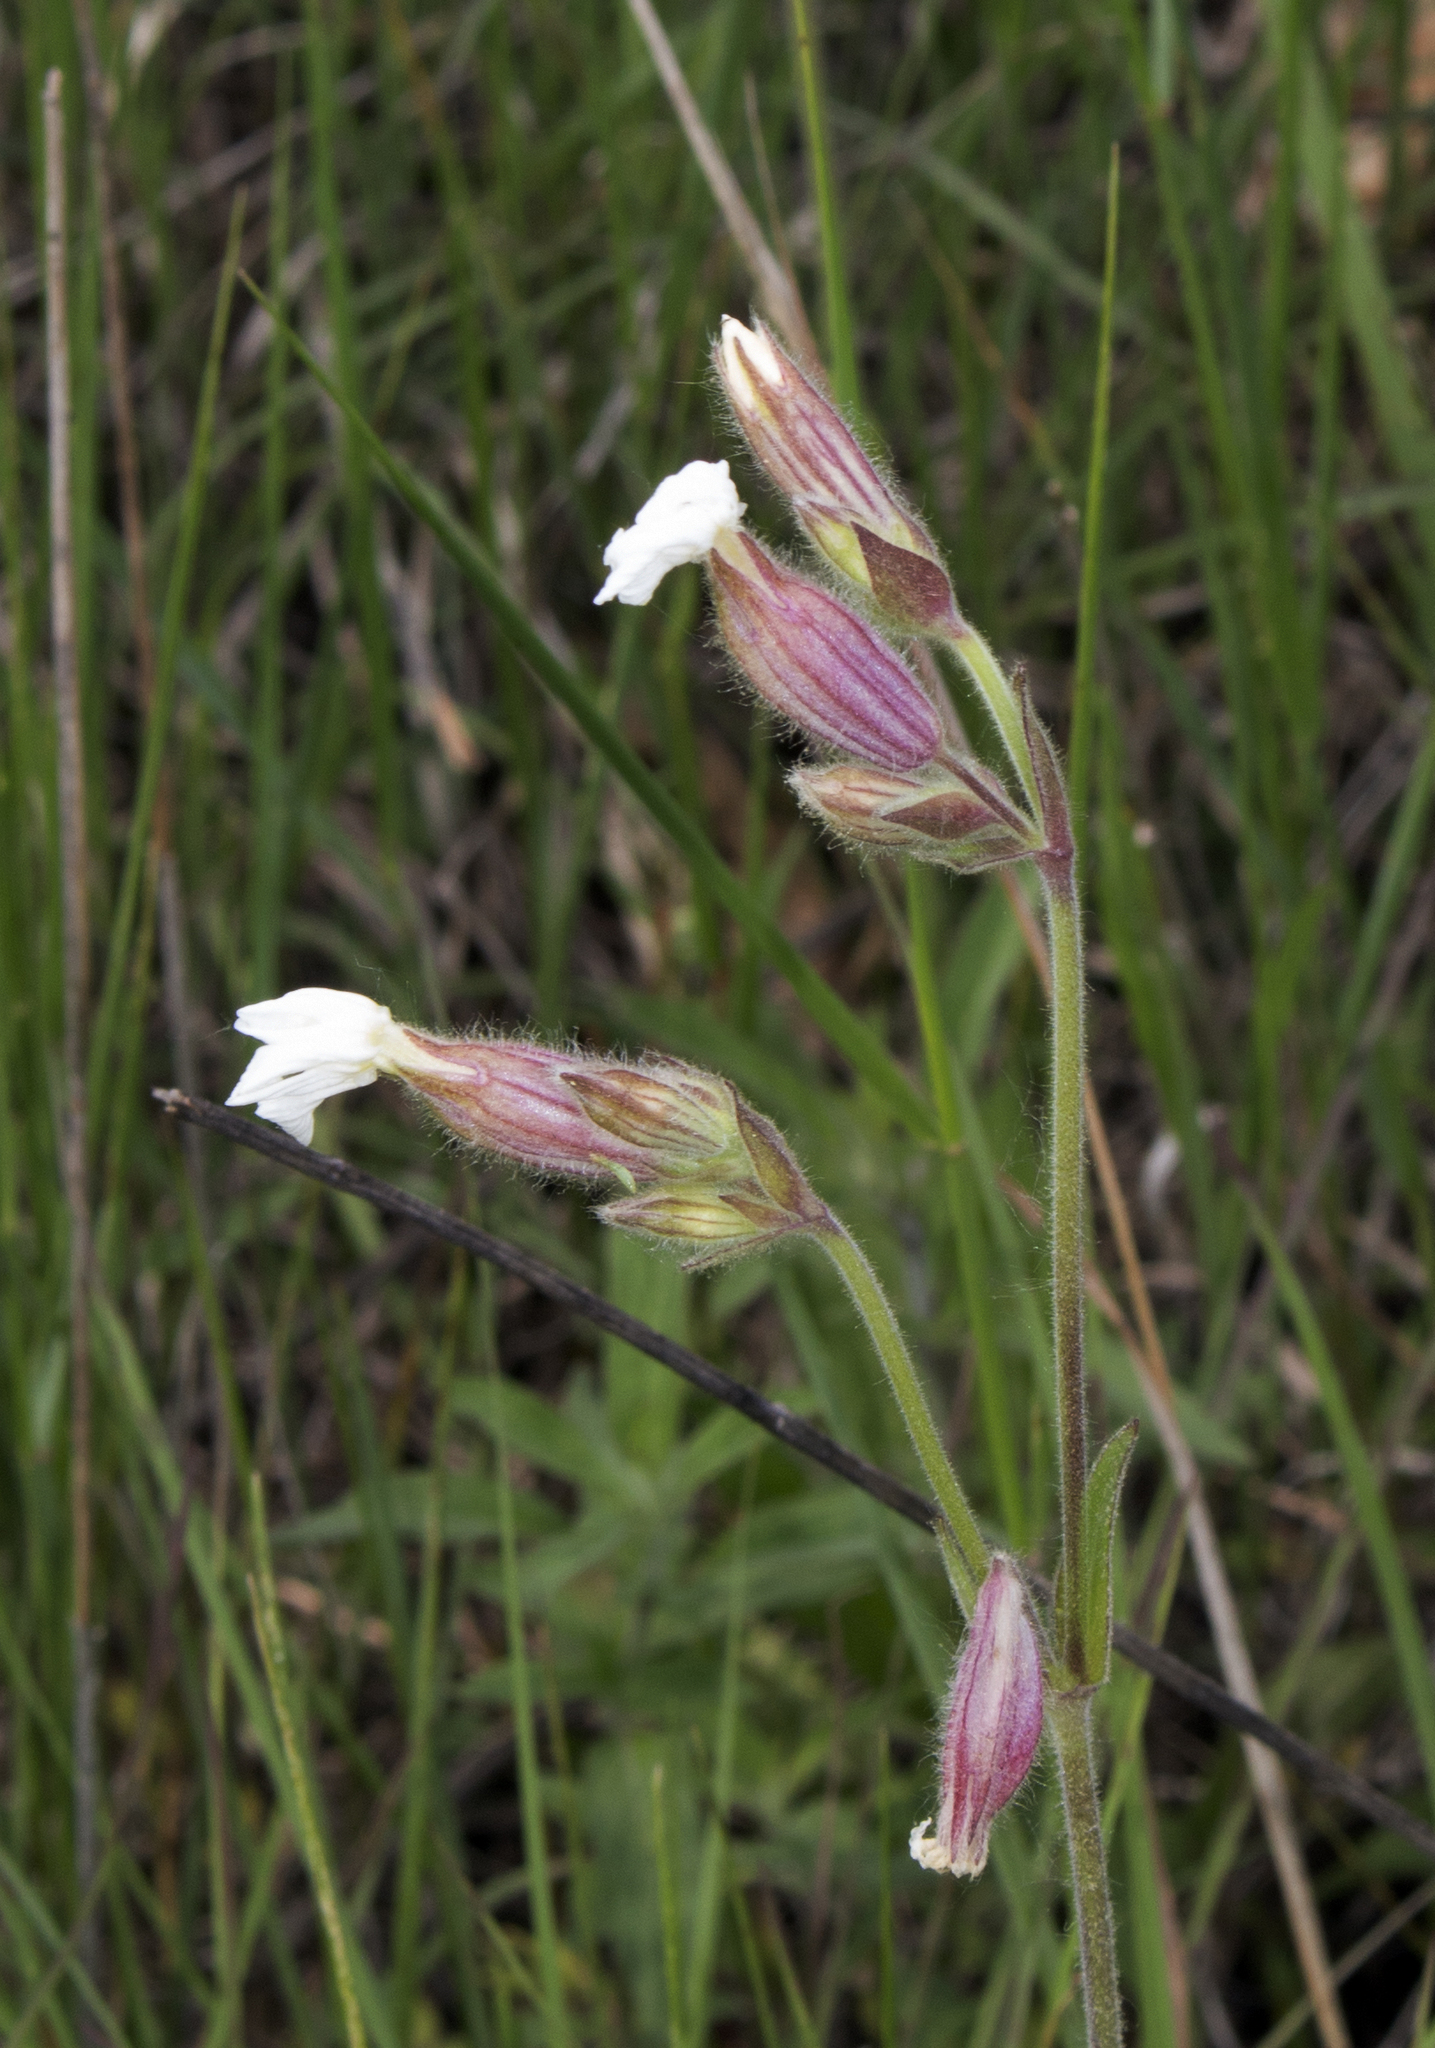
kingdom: Plantae
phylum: Tracheophyta
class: Magnoliopsida
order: Caryophyllales
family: Caryophyllaceae
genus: Silene
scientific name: Silene latifolia
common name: White campion
